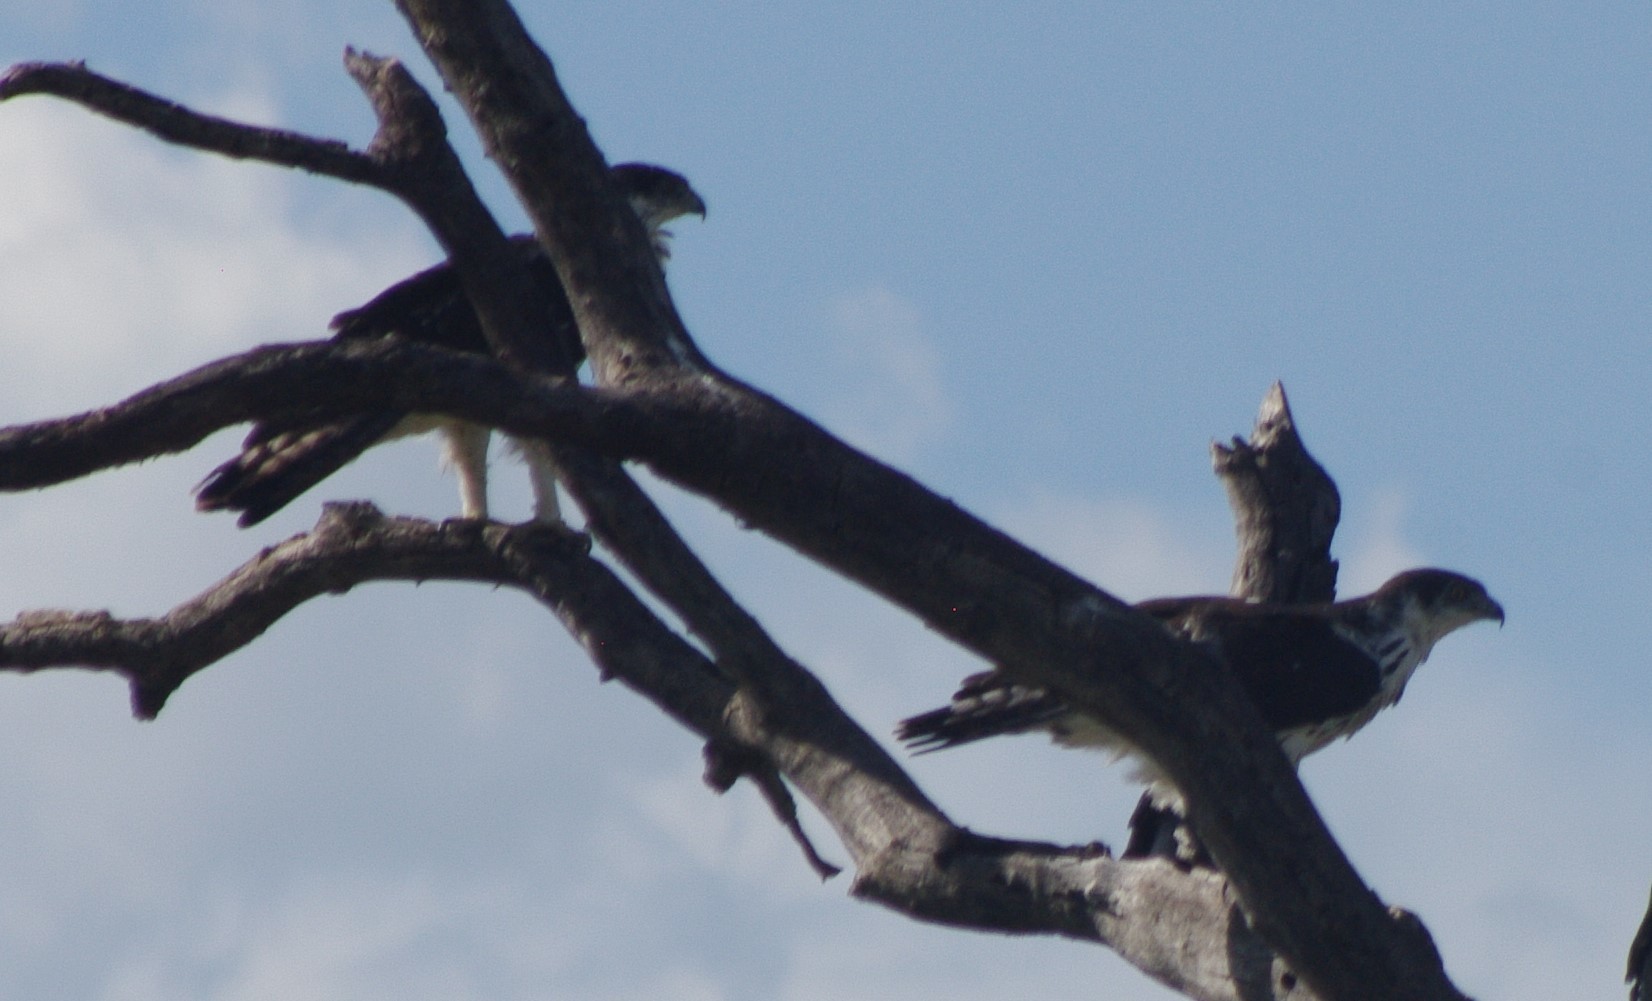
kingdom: Animalia
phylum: Chordata
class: Aves
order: Accipitriformes
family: Accipitridae
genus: Aquila
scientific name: Aquila spilogaster
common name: African hawk-eagle
